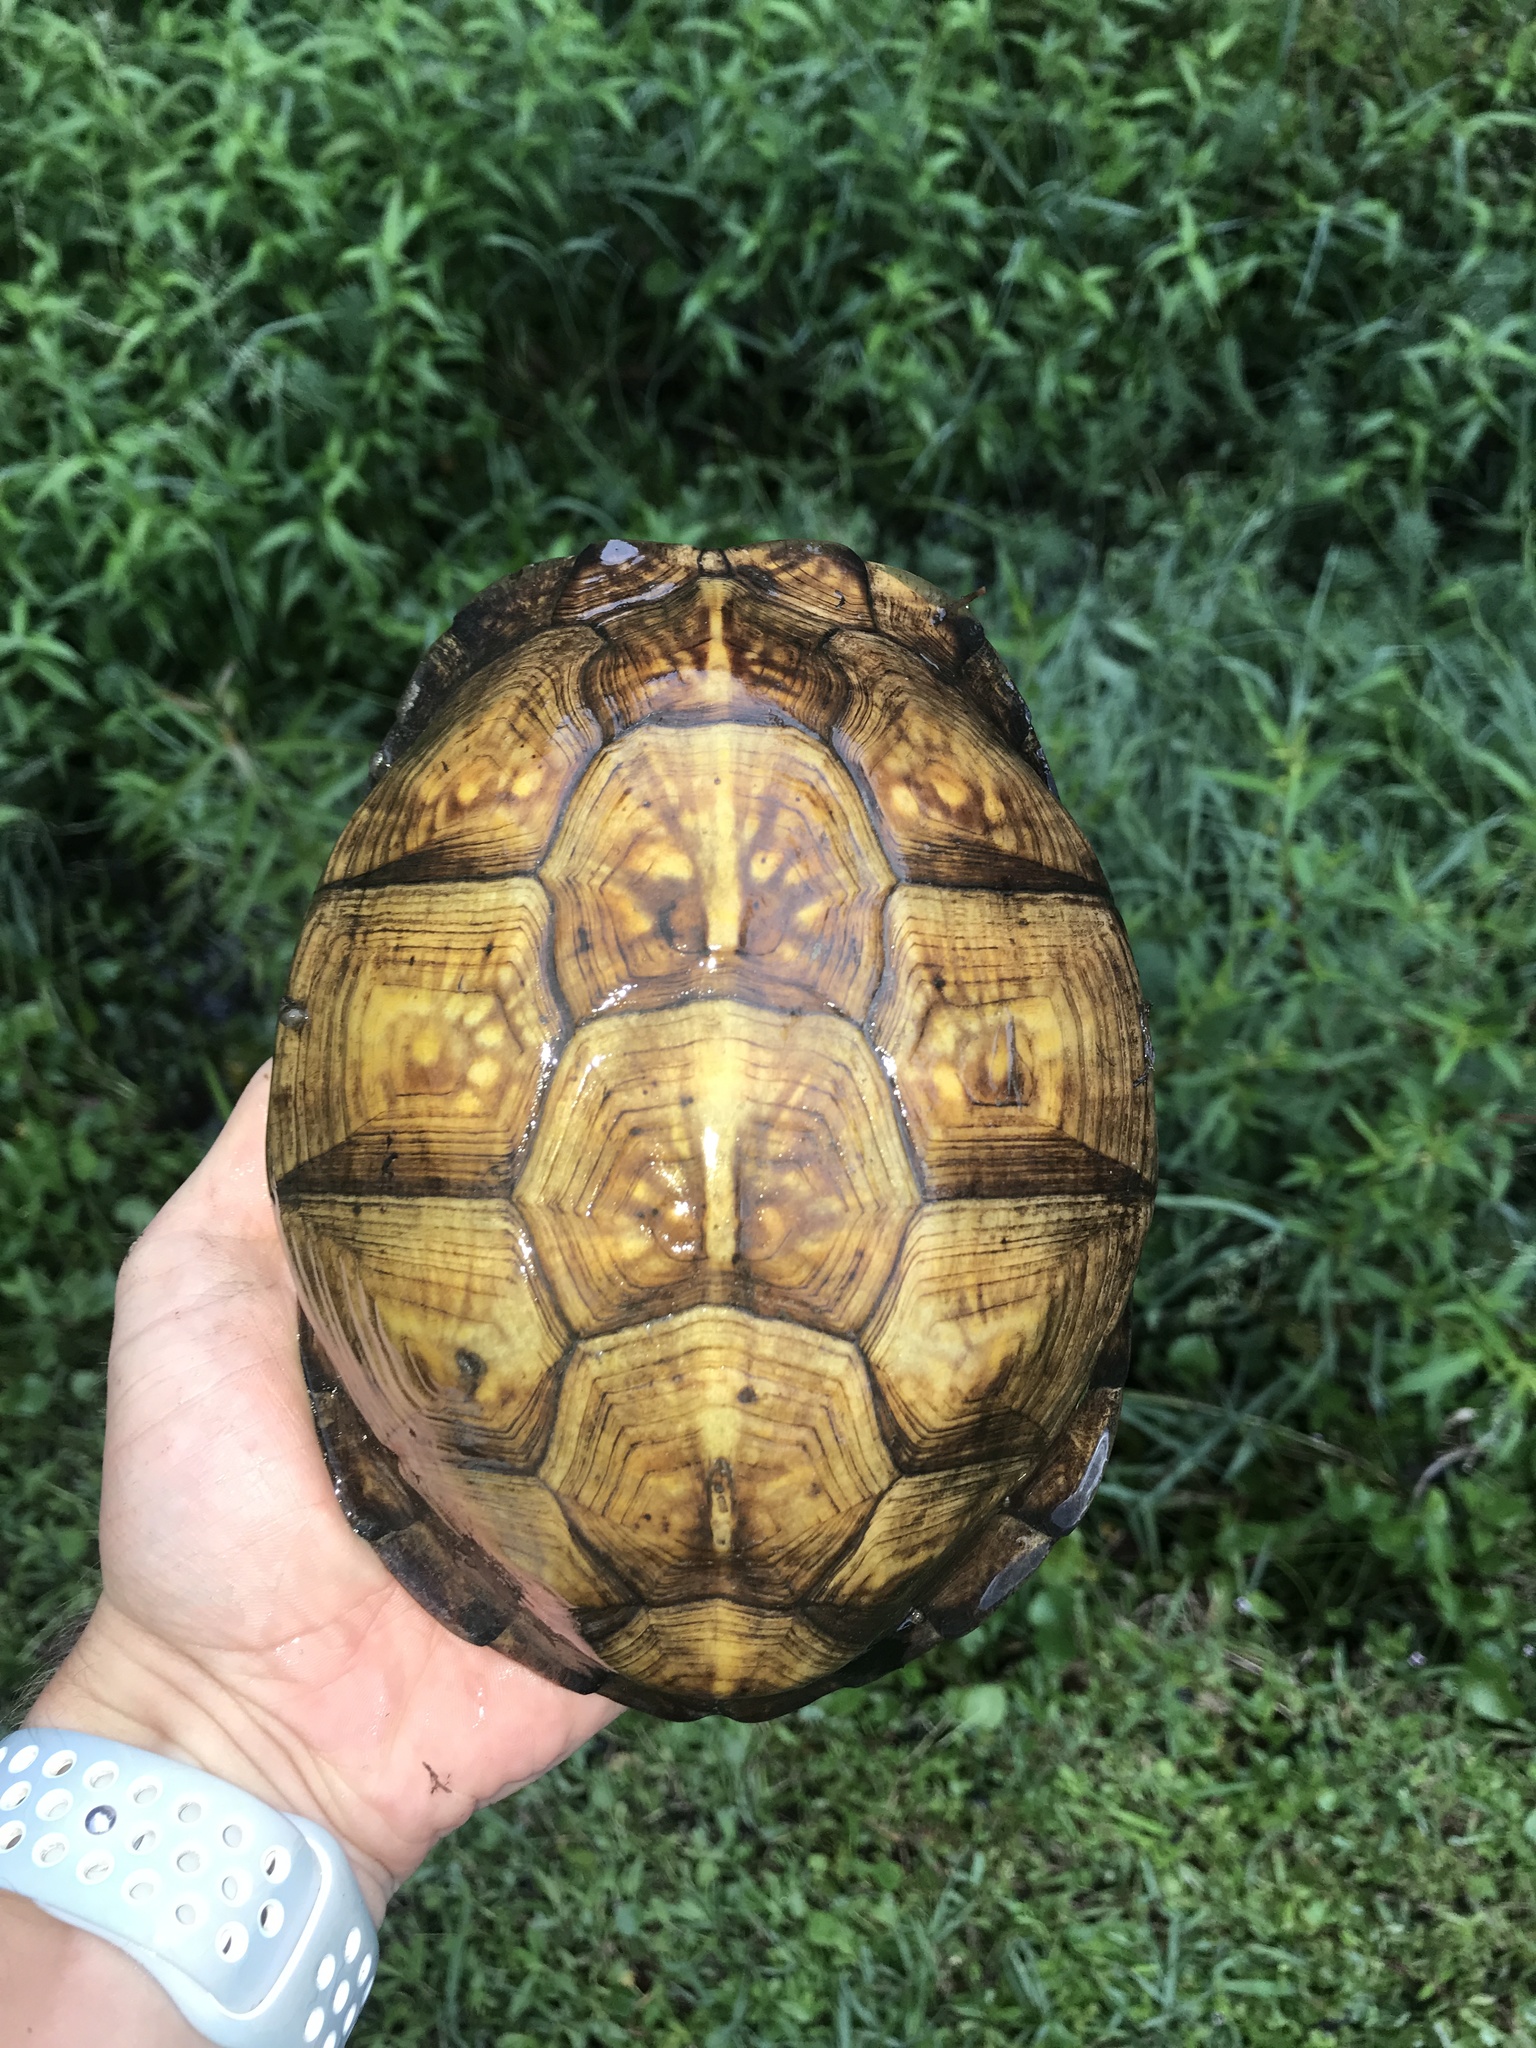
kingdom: Animalia
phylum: Chordata
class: Testudines
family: Emydidae
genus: Terrapene
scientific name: Terrapene carolina
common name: Common box turtle
